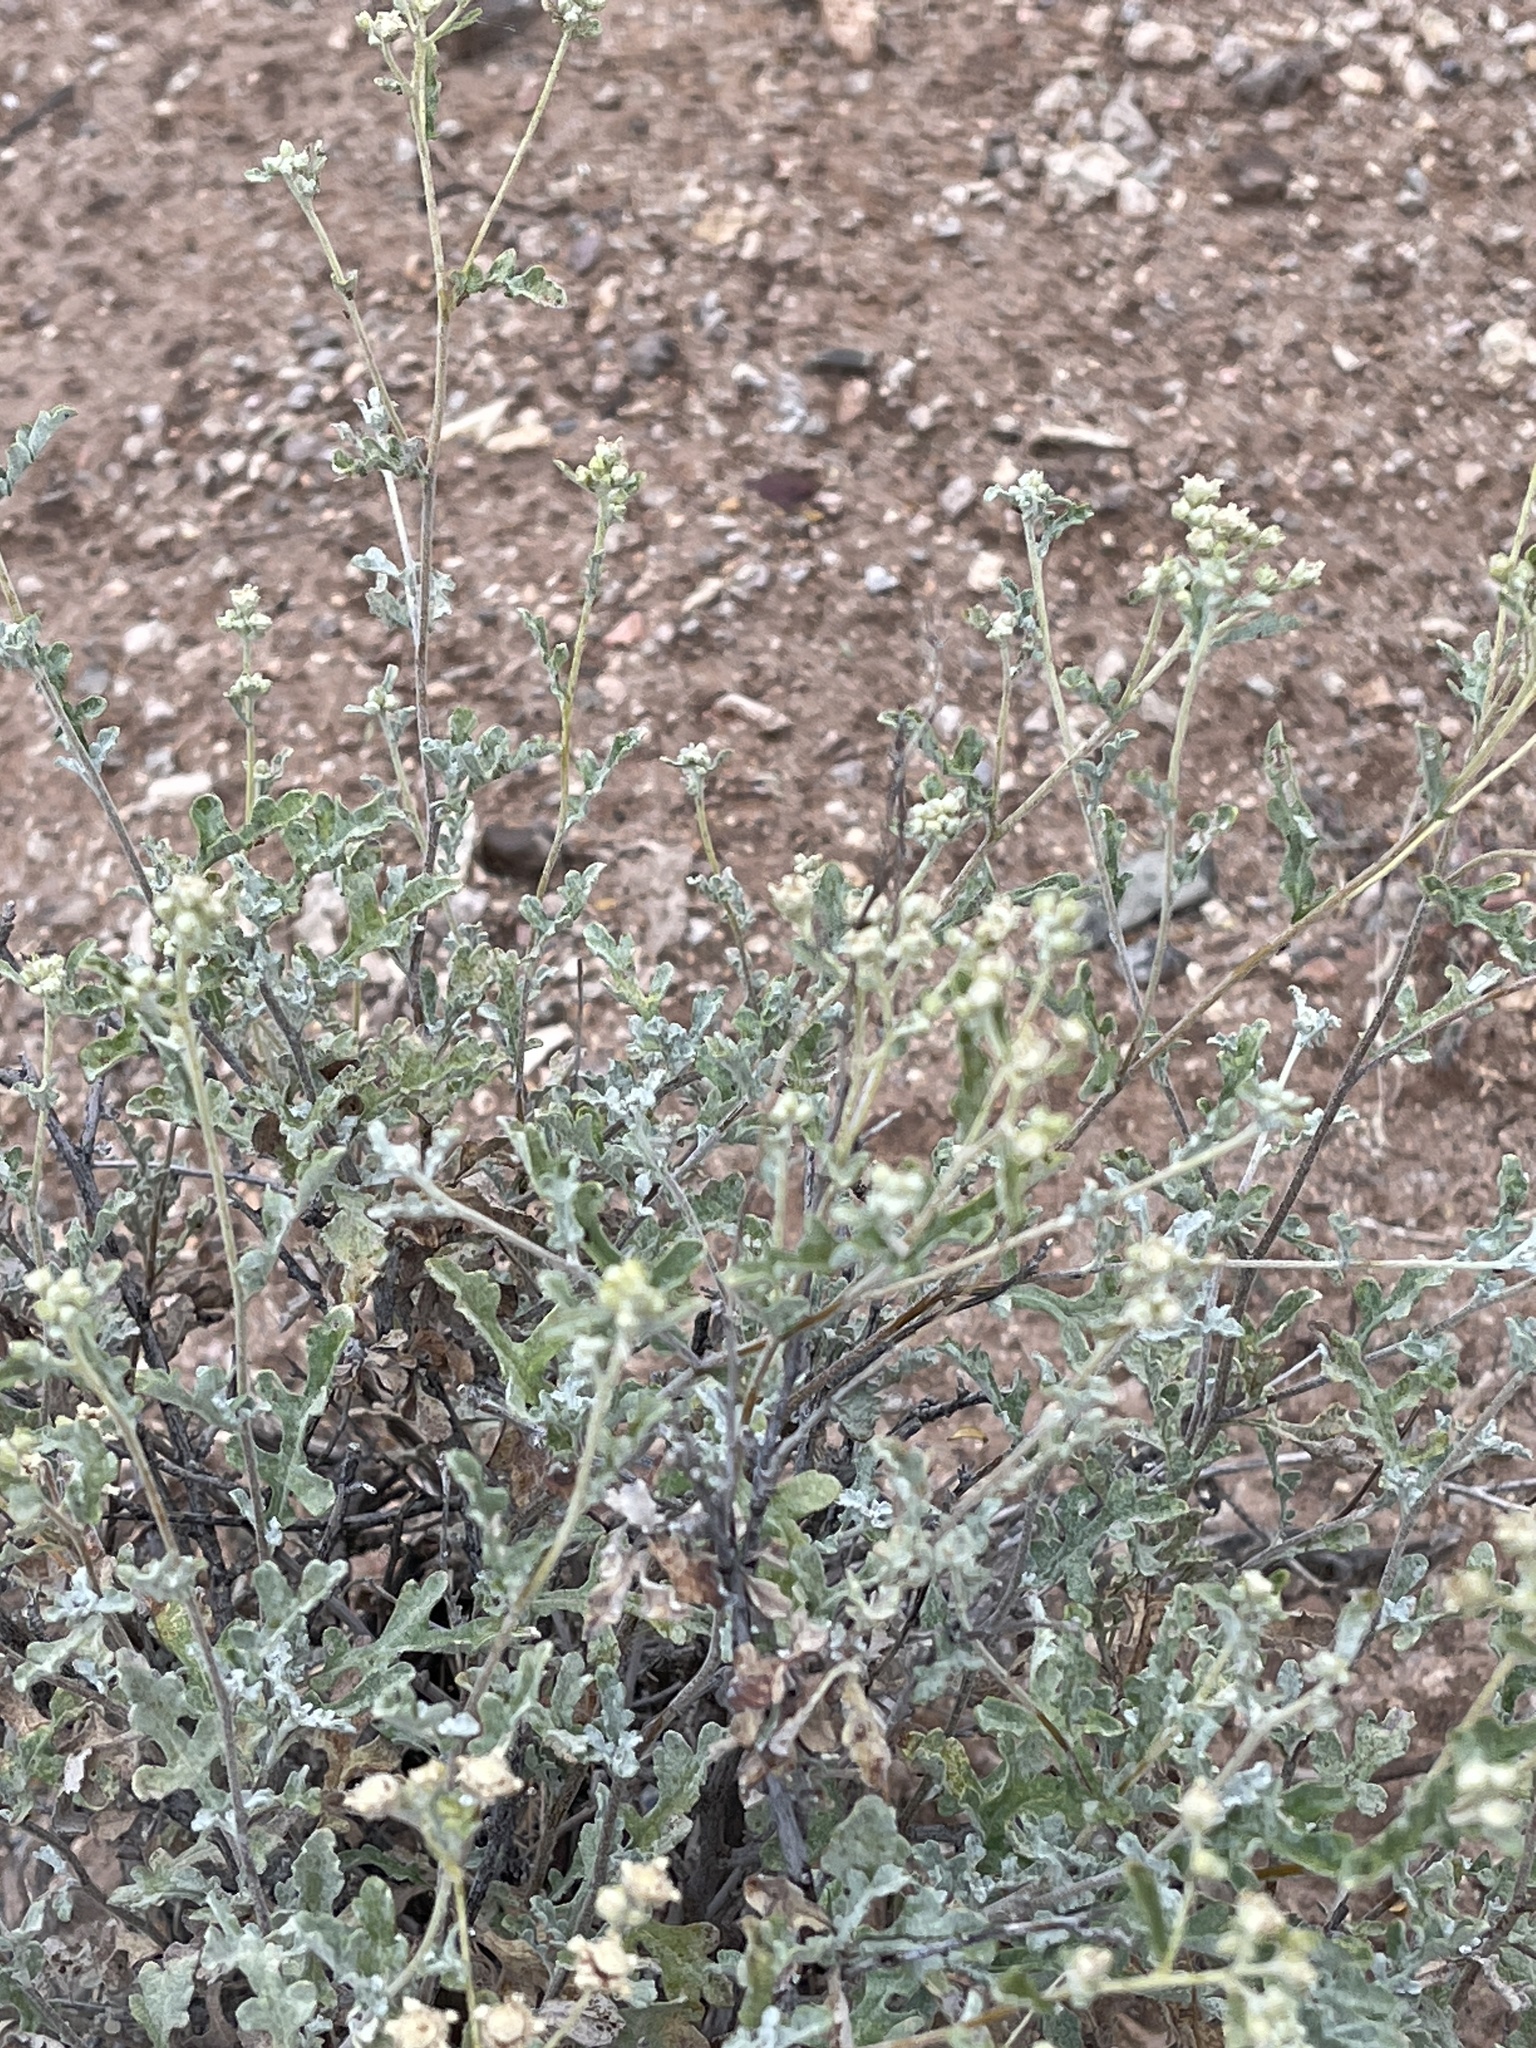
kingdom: Plantae
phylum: Tracheophyta
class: Magnoliopsida
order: Asterales
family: Asteraceae
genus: Parthenium
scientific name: Parthenium incanum
